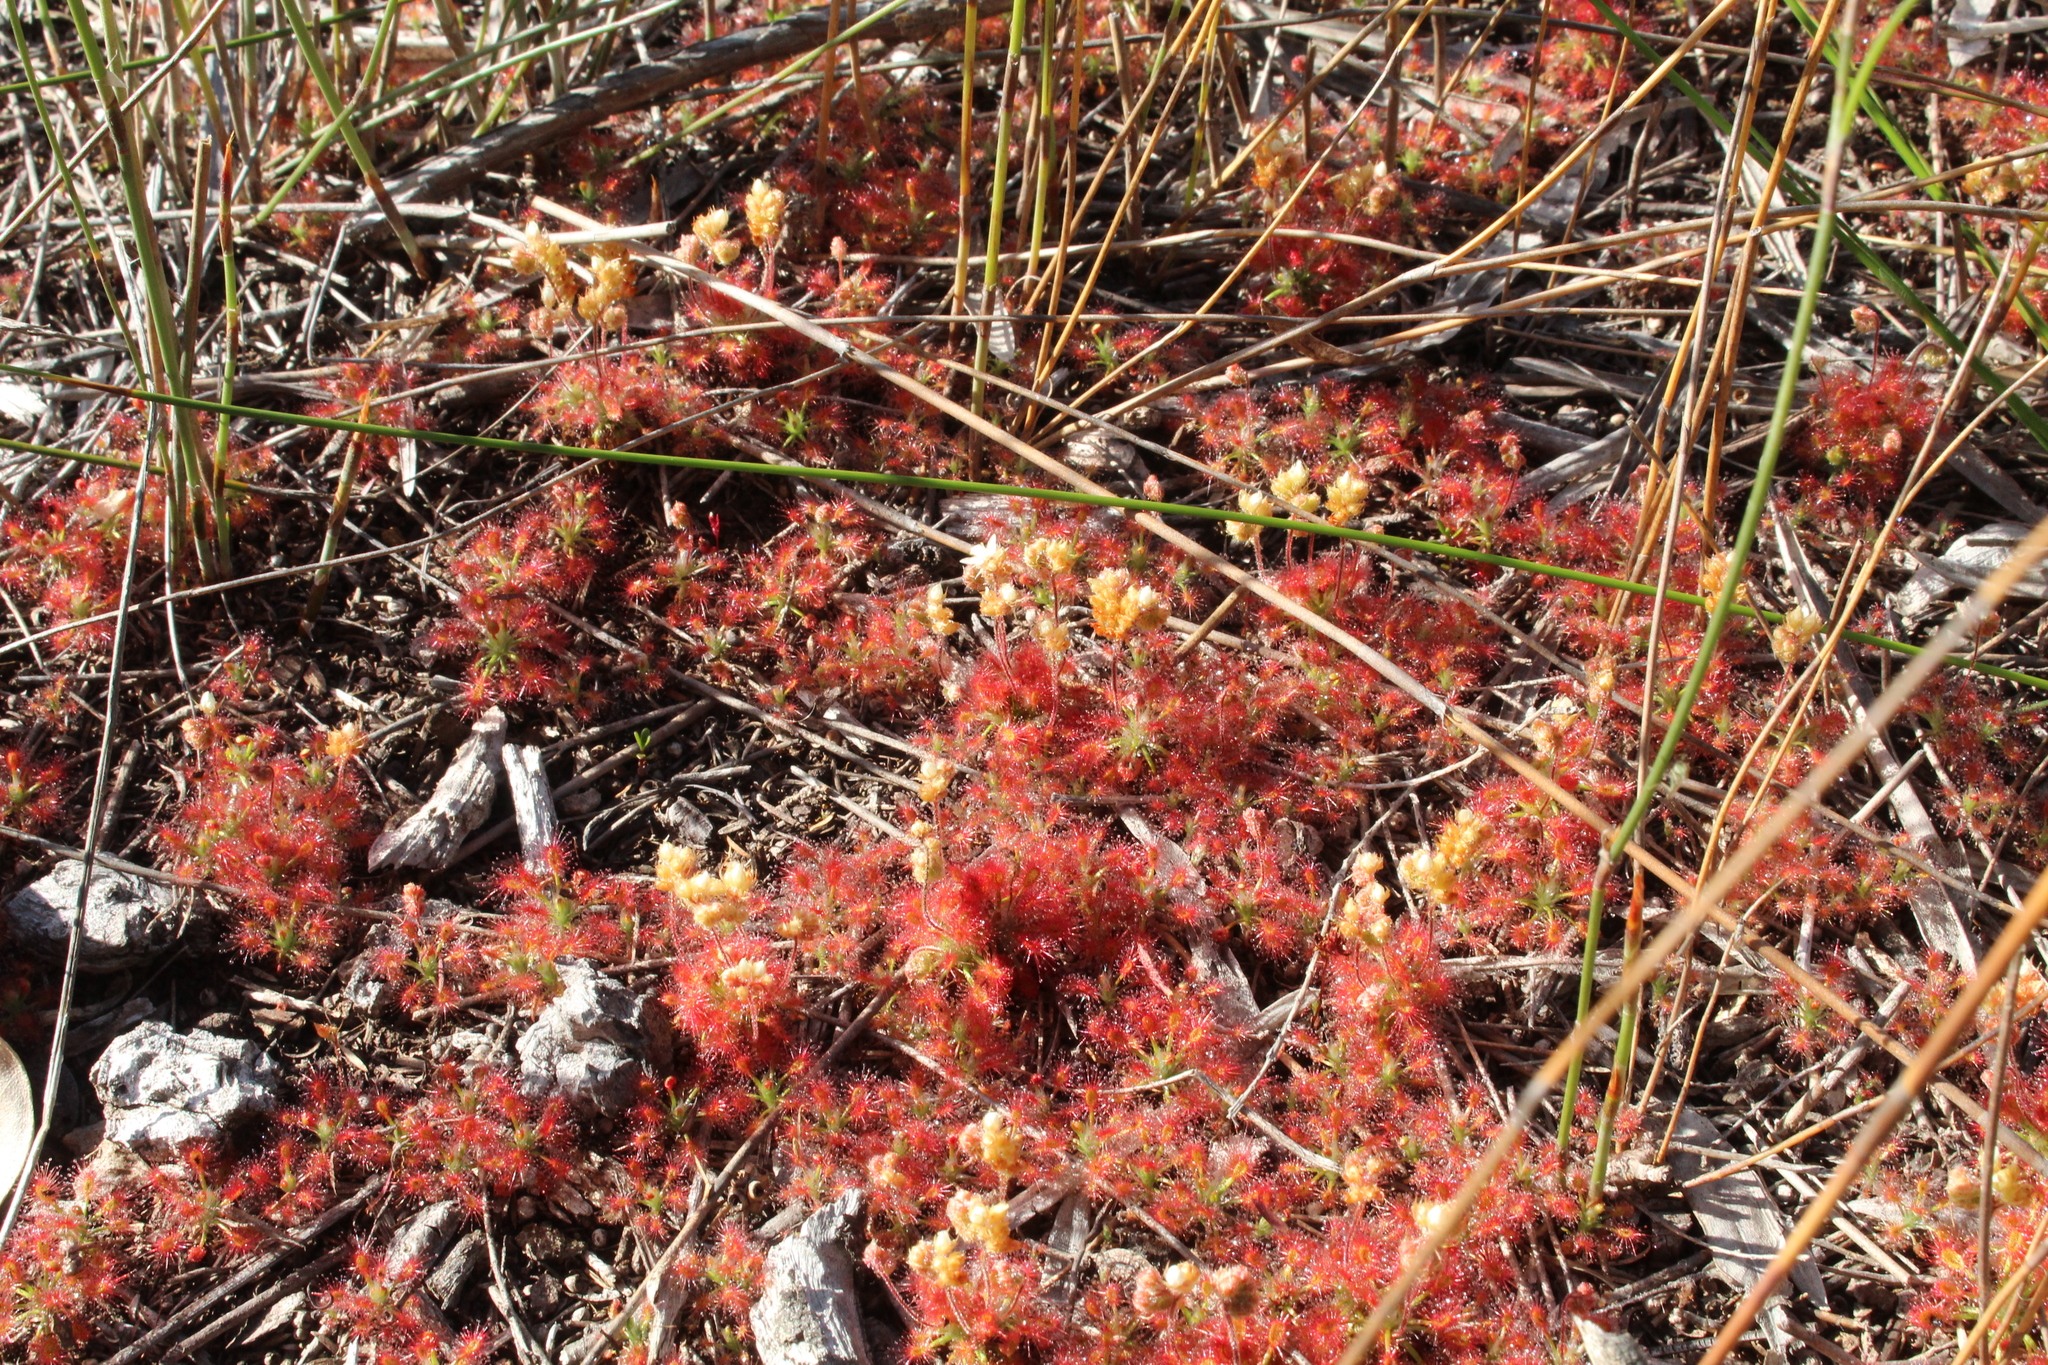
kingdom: Plantae
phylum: Tracheophyta
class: Magnoliopsida
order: Caryophyllales
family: Droseraceae
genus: Drosera
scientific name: Drosera paleacea
